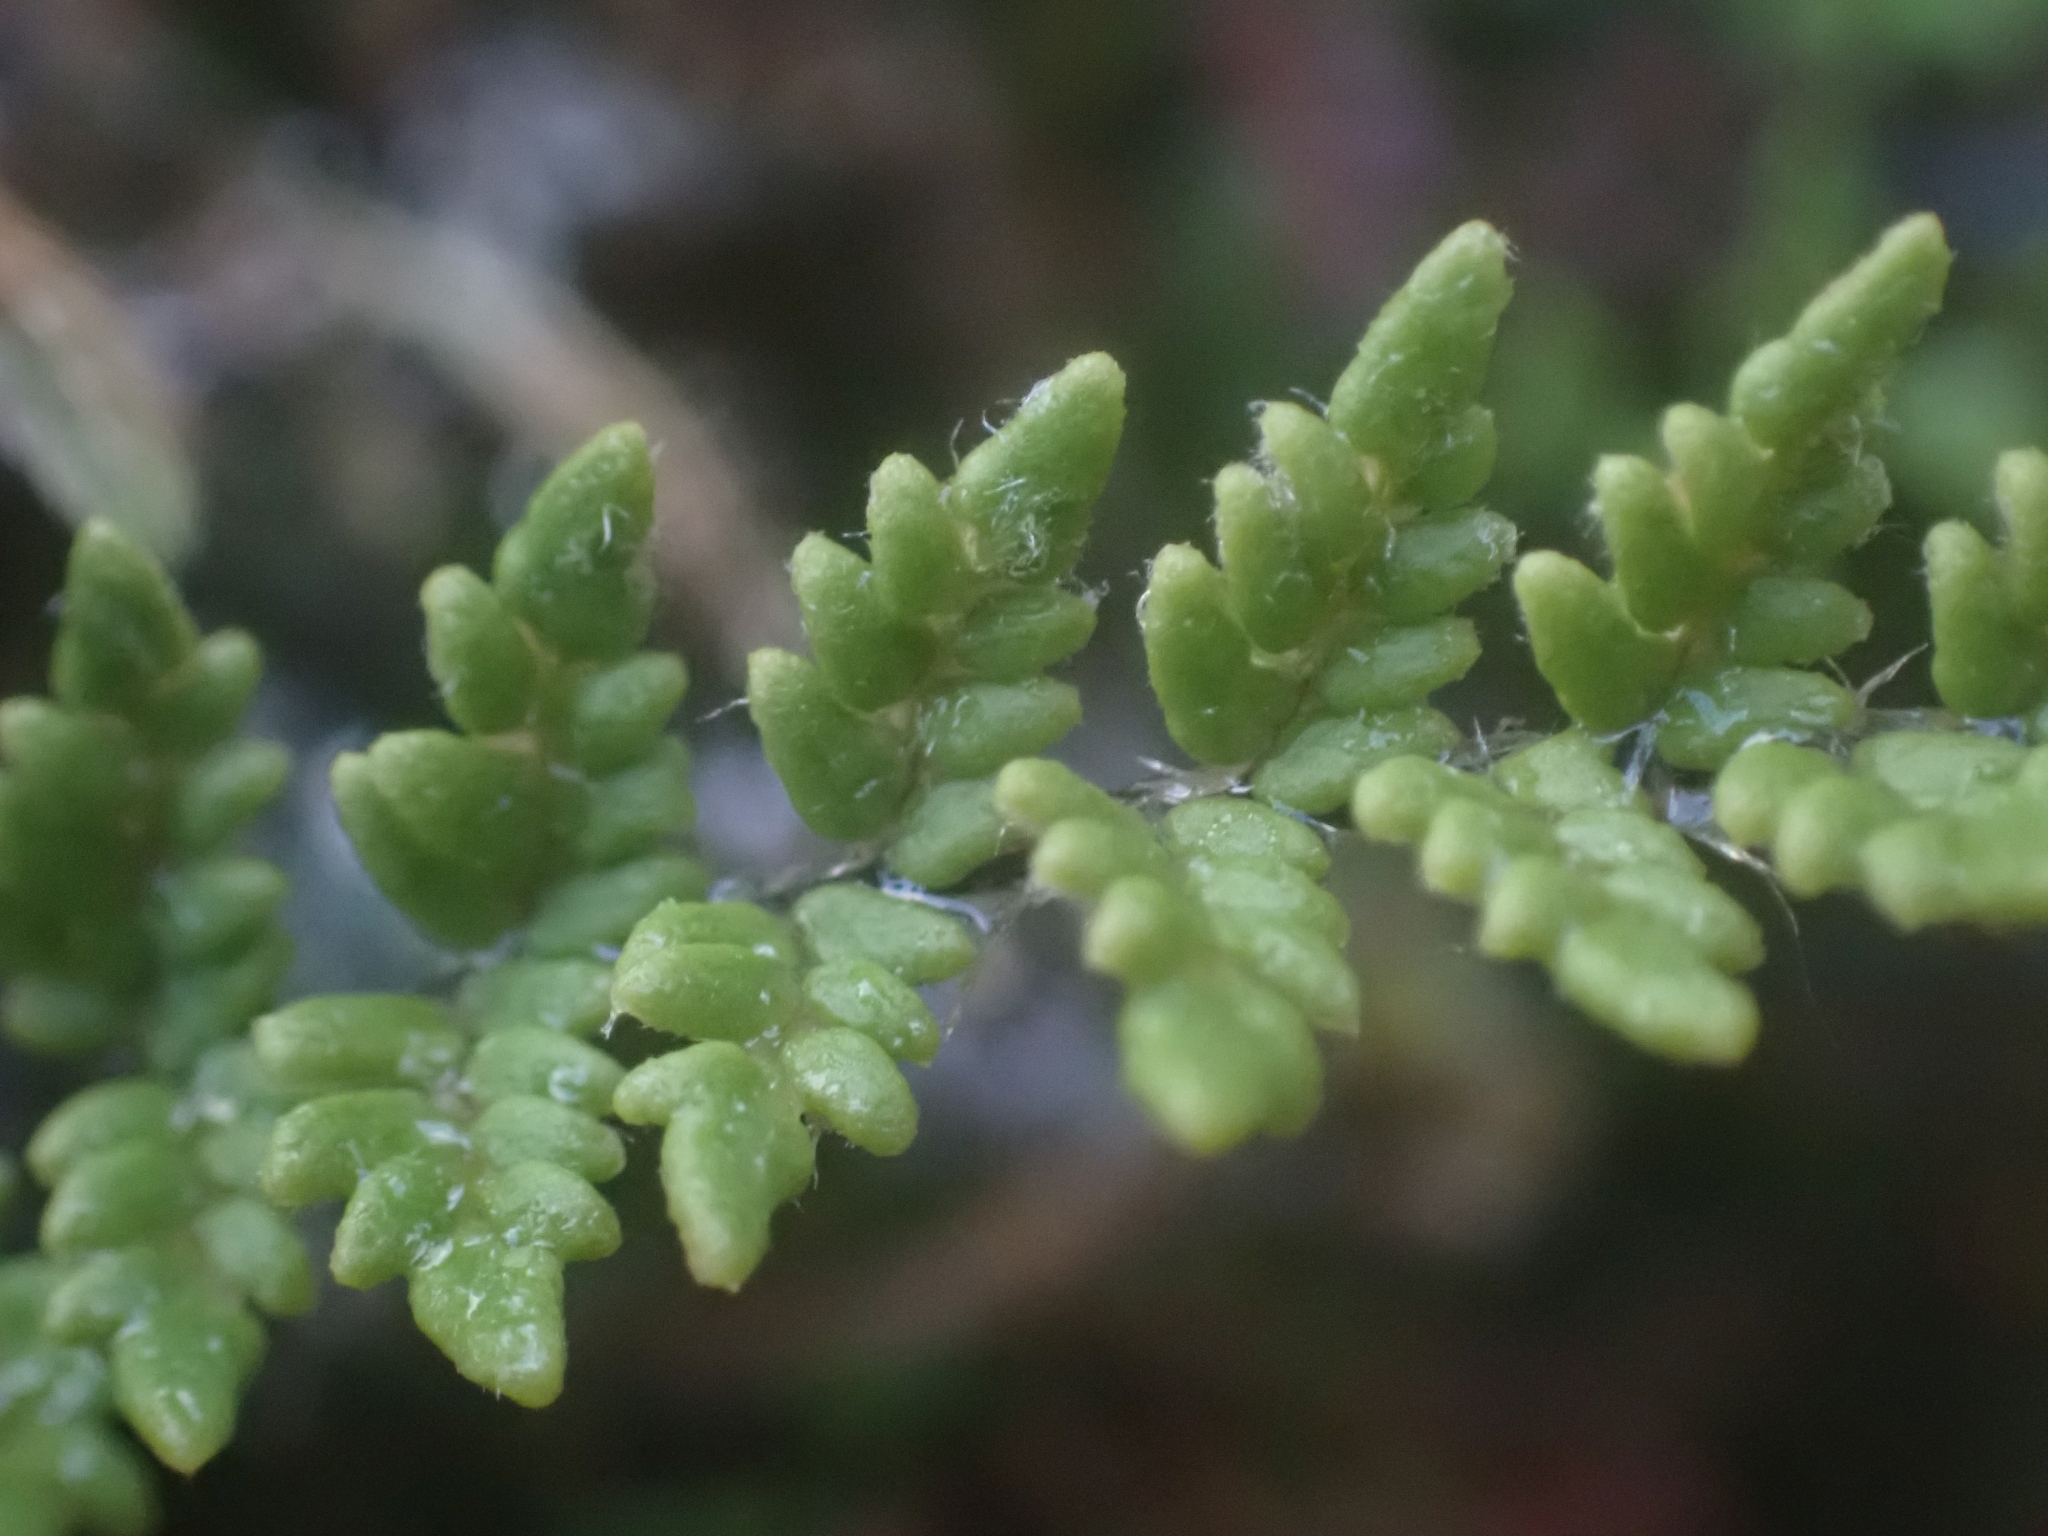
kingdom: Plantae
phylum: Tracheophyta
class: Polypodiopsida
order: Polypodiales
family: Pteridaceae
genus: Myriopteris
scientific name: Myriopteris gracillima
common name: Lace fern
